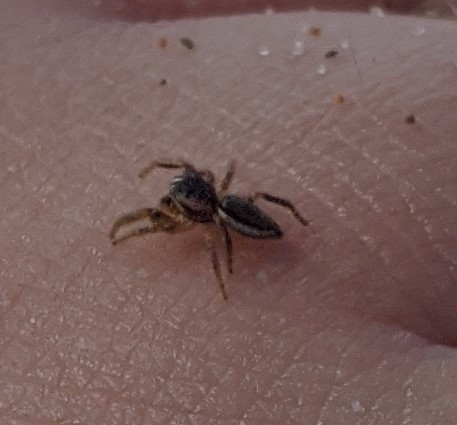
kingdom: Animalia
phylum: Arthropoda
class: Arachnida
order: Araneae
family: Salticidae
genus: Pelegrina
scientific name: Pelegrina flavipes
